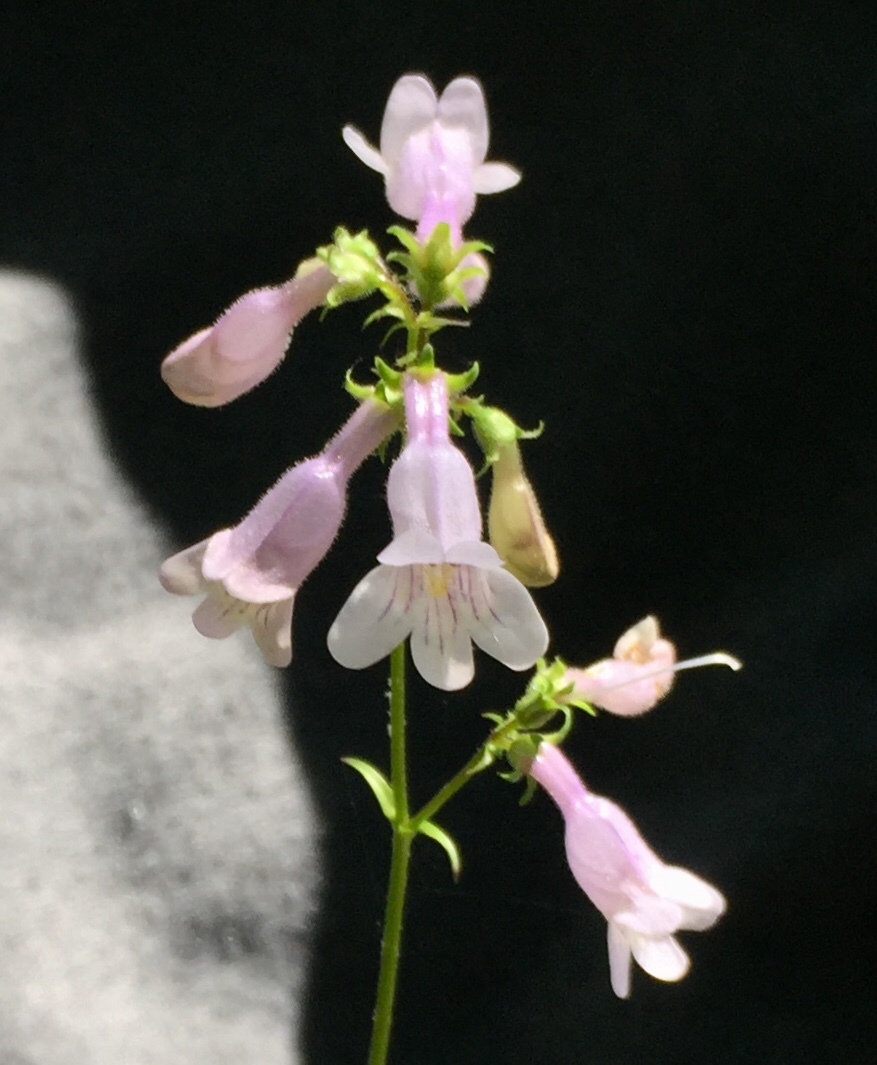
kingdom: Plantae
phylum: Tracheophyta
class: Magnoliopsida
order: Lamiales
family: Plantaginaceae
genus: Penstemon
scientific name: Penstemon laevigatus
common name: Eastern beardtongue
